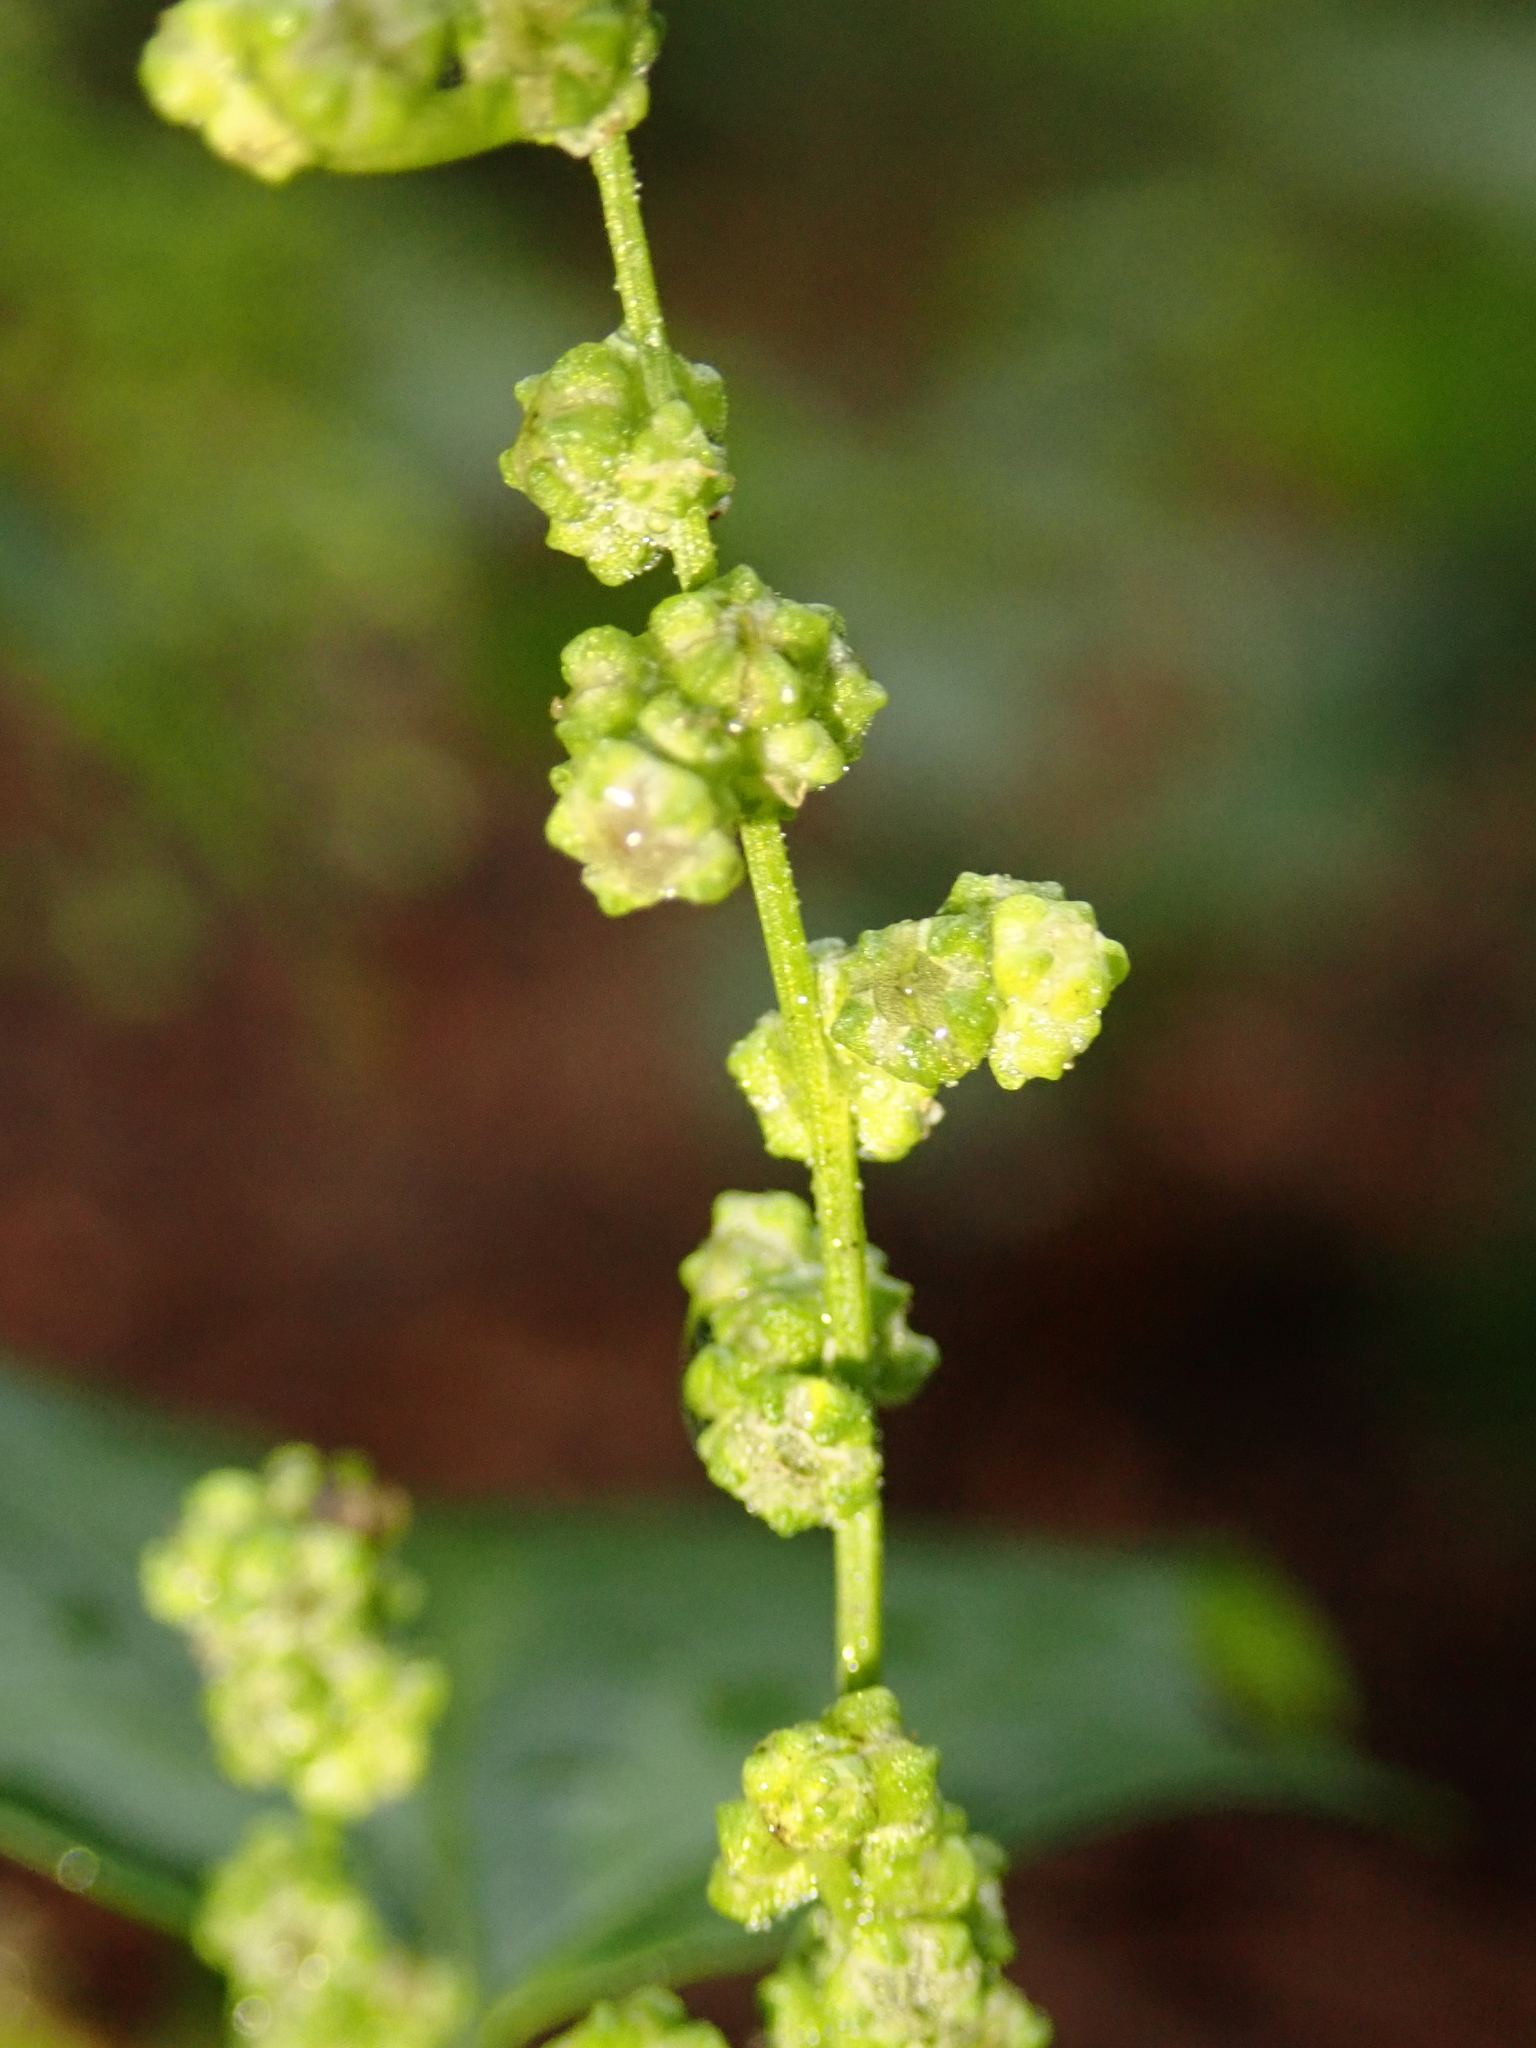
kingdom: Plantae
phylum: Tracheophyta
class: Magnoliopsida
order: Caryophyllales
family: Amaranthaceae
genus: Chenopodiastrum
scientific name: Chenopodiastrum hybridum
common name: Mapleleaf goosefoot
